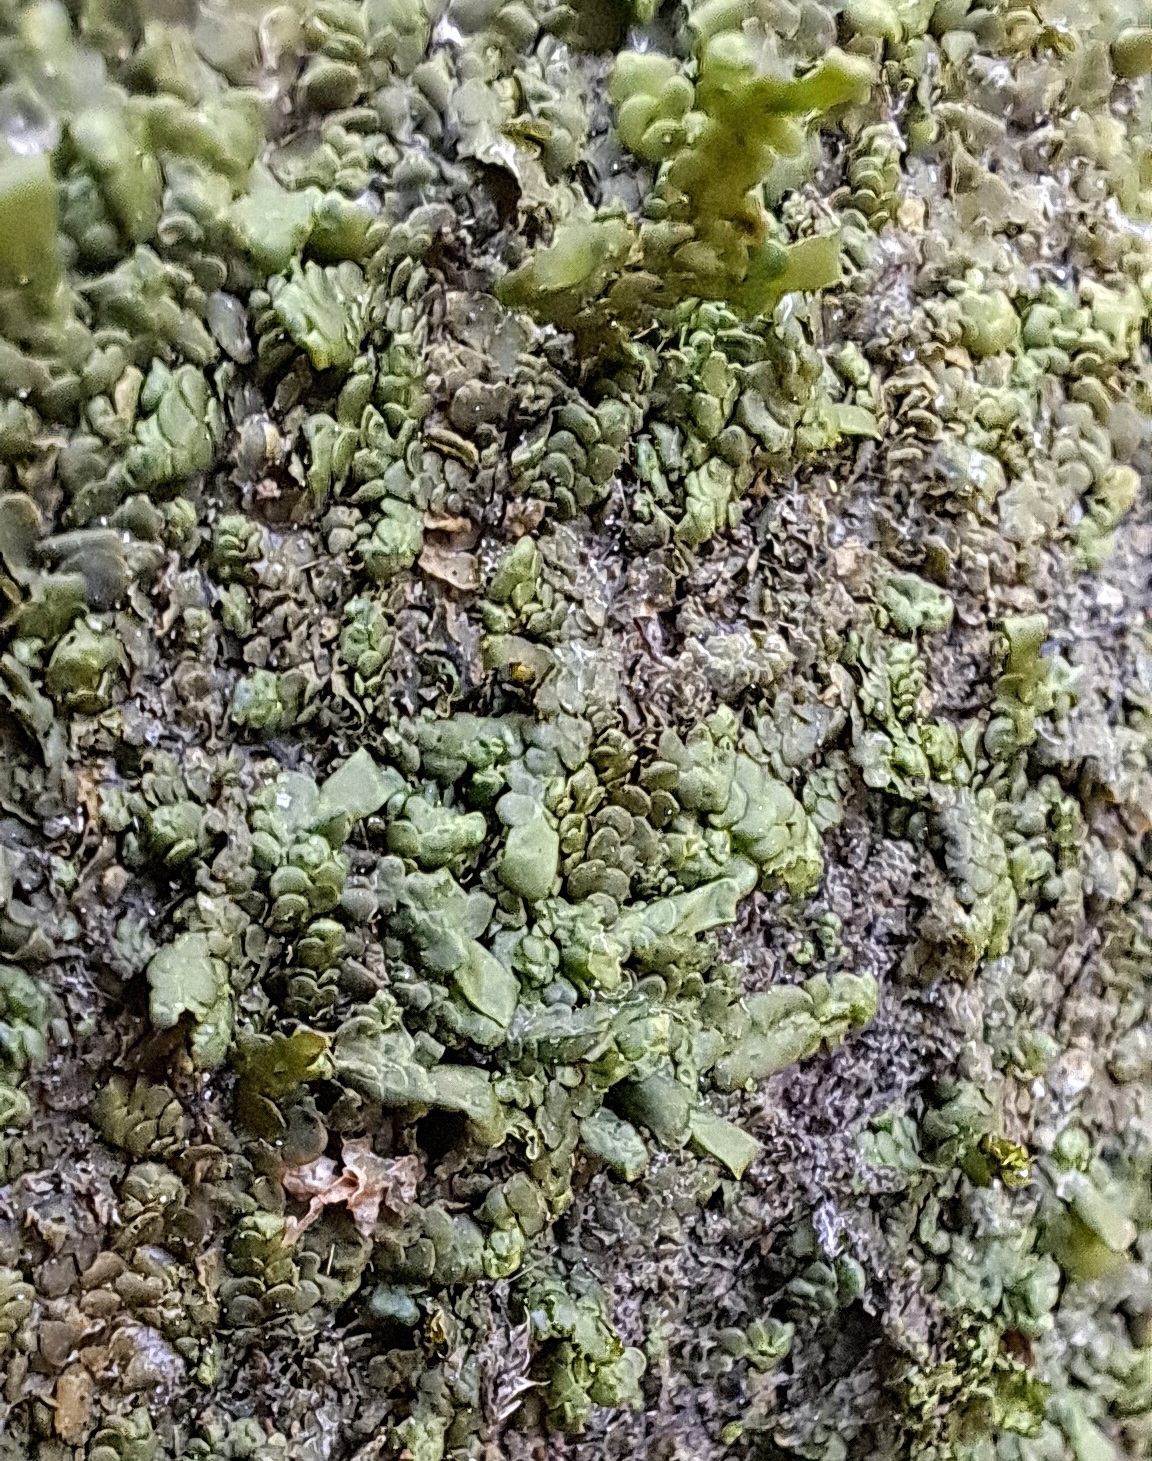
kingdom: Plantae
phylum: Marchantiophyta
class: Jungermanniopsida
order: Porellales
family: Radulaceae
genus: Radula
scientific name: Radula complanata
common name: Flat-leaved scalewort
